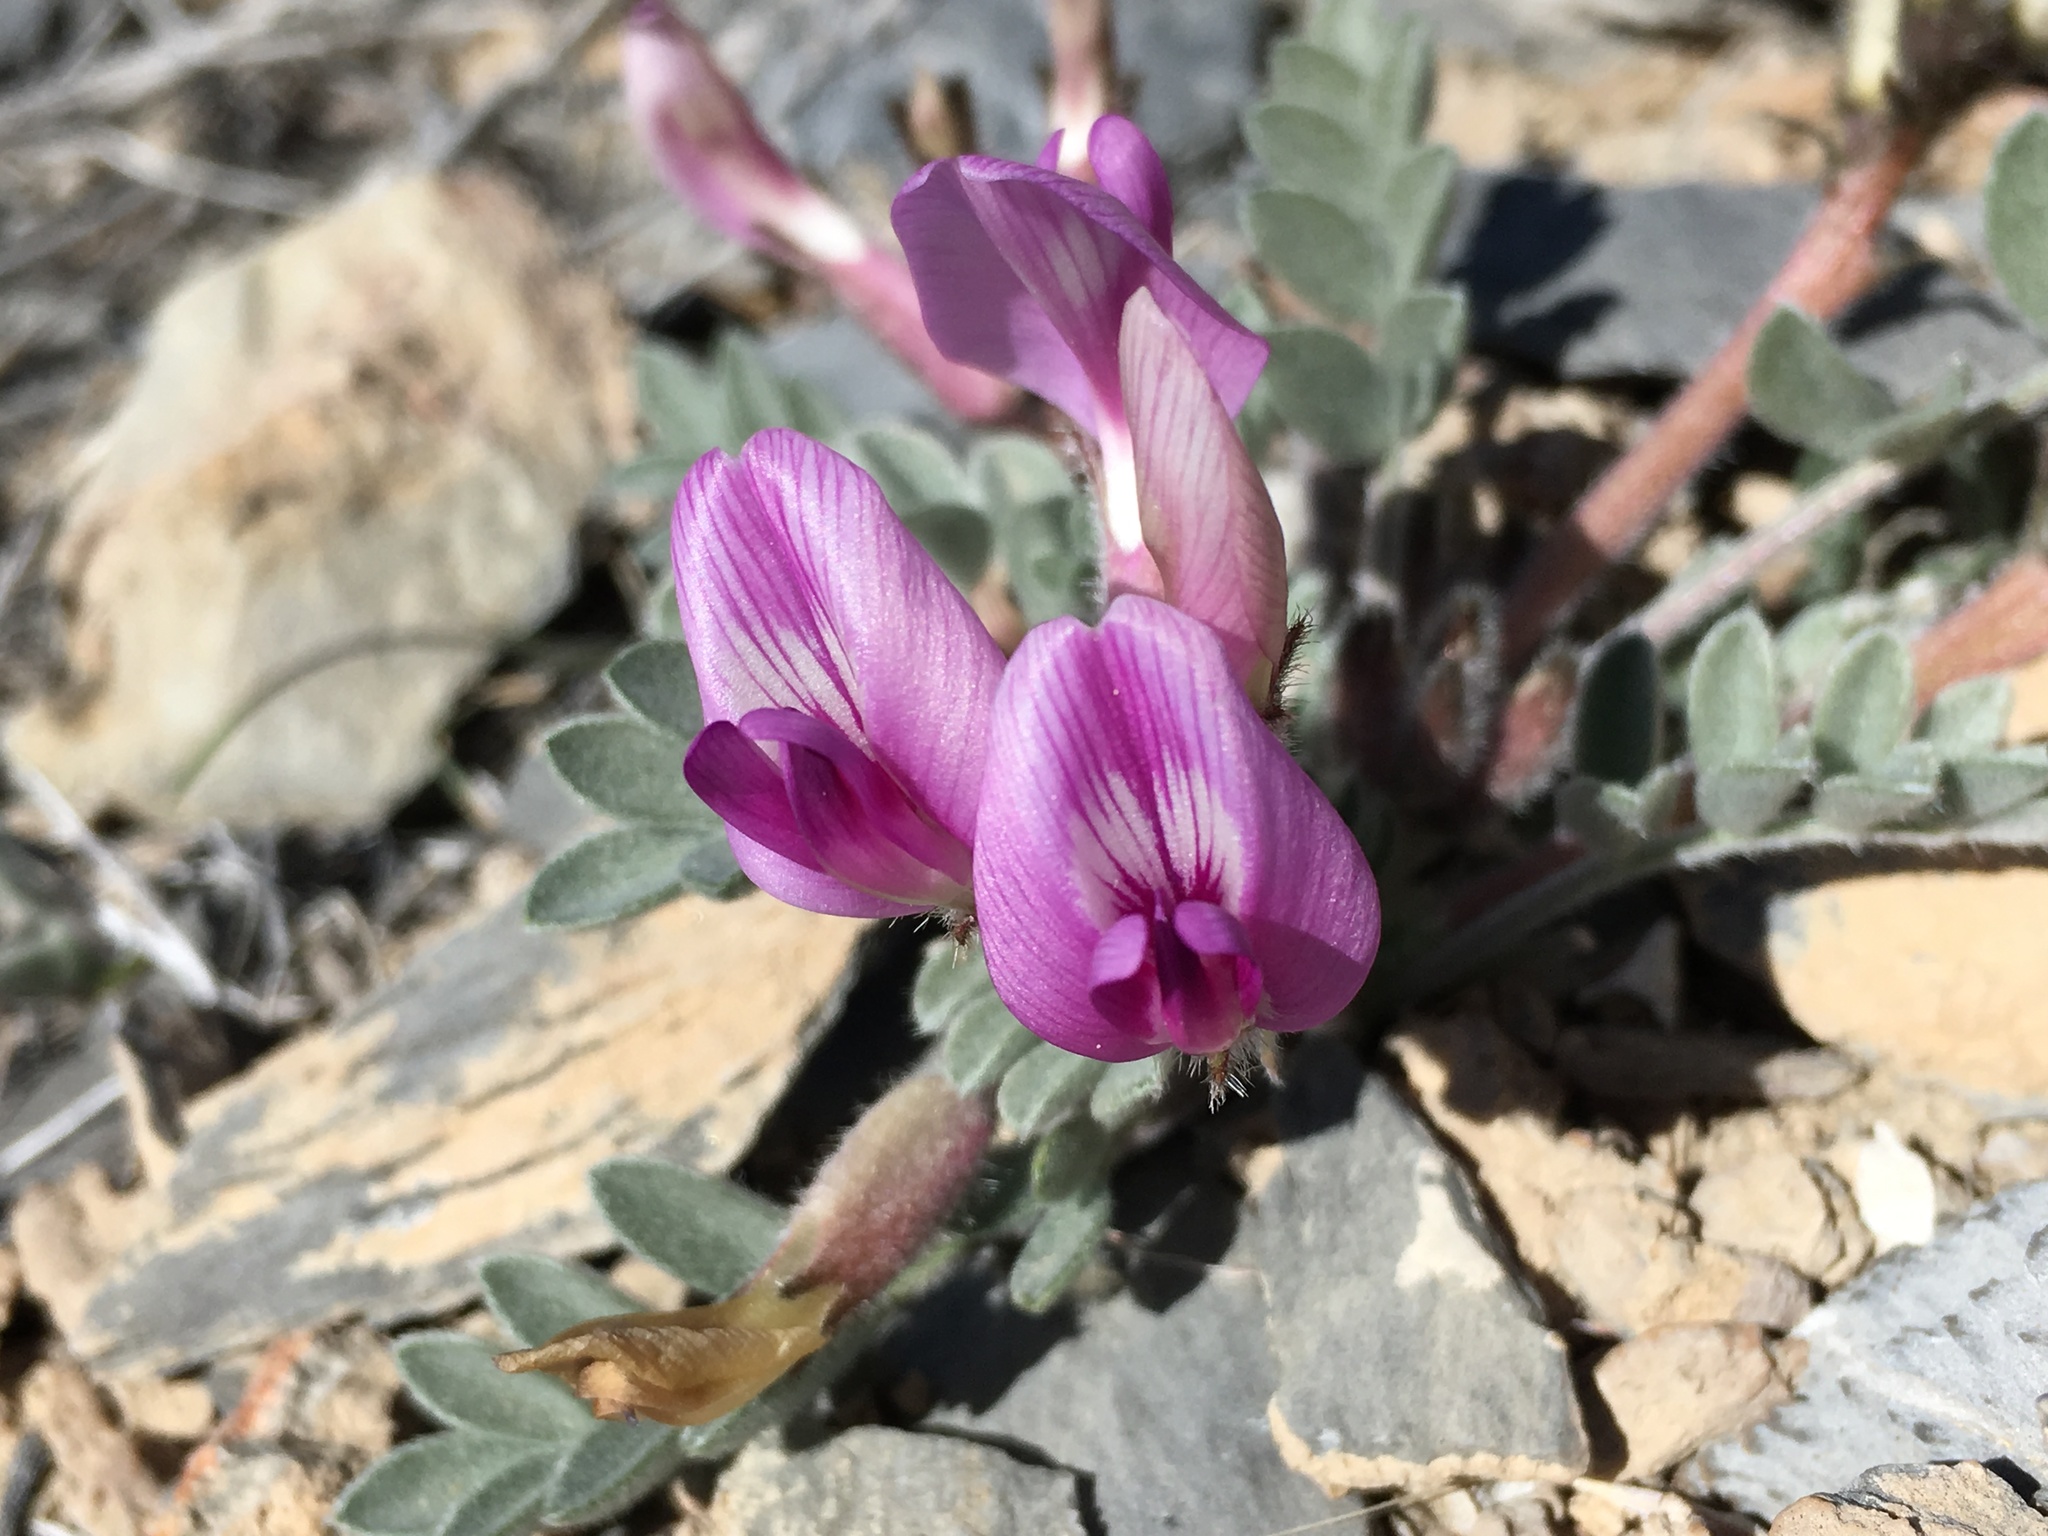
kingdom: Plantae
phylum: Tracheophyta
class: Magnoliopsida
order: Fabales
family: Fabaceae
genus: Astragalus
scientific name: Astragalus newberryi
